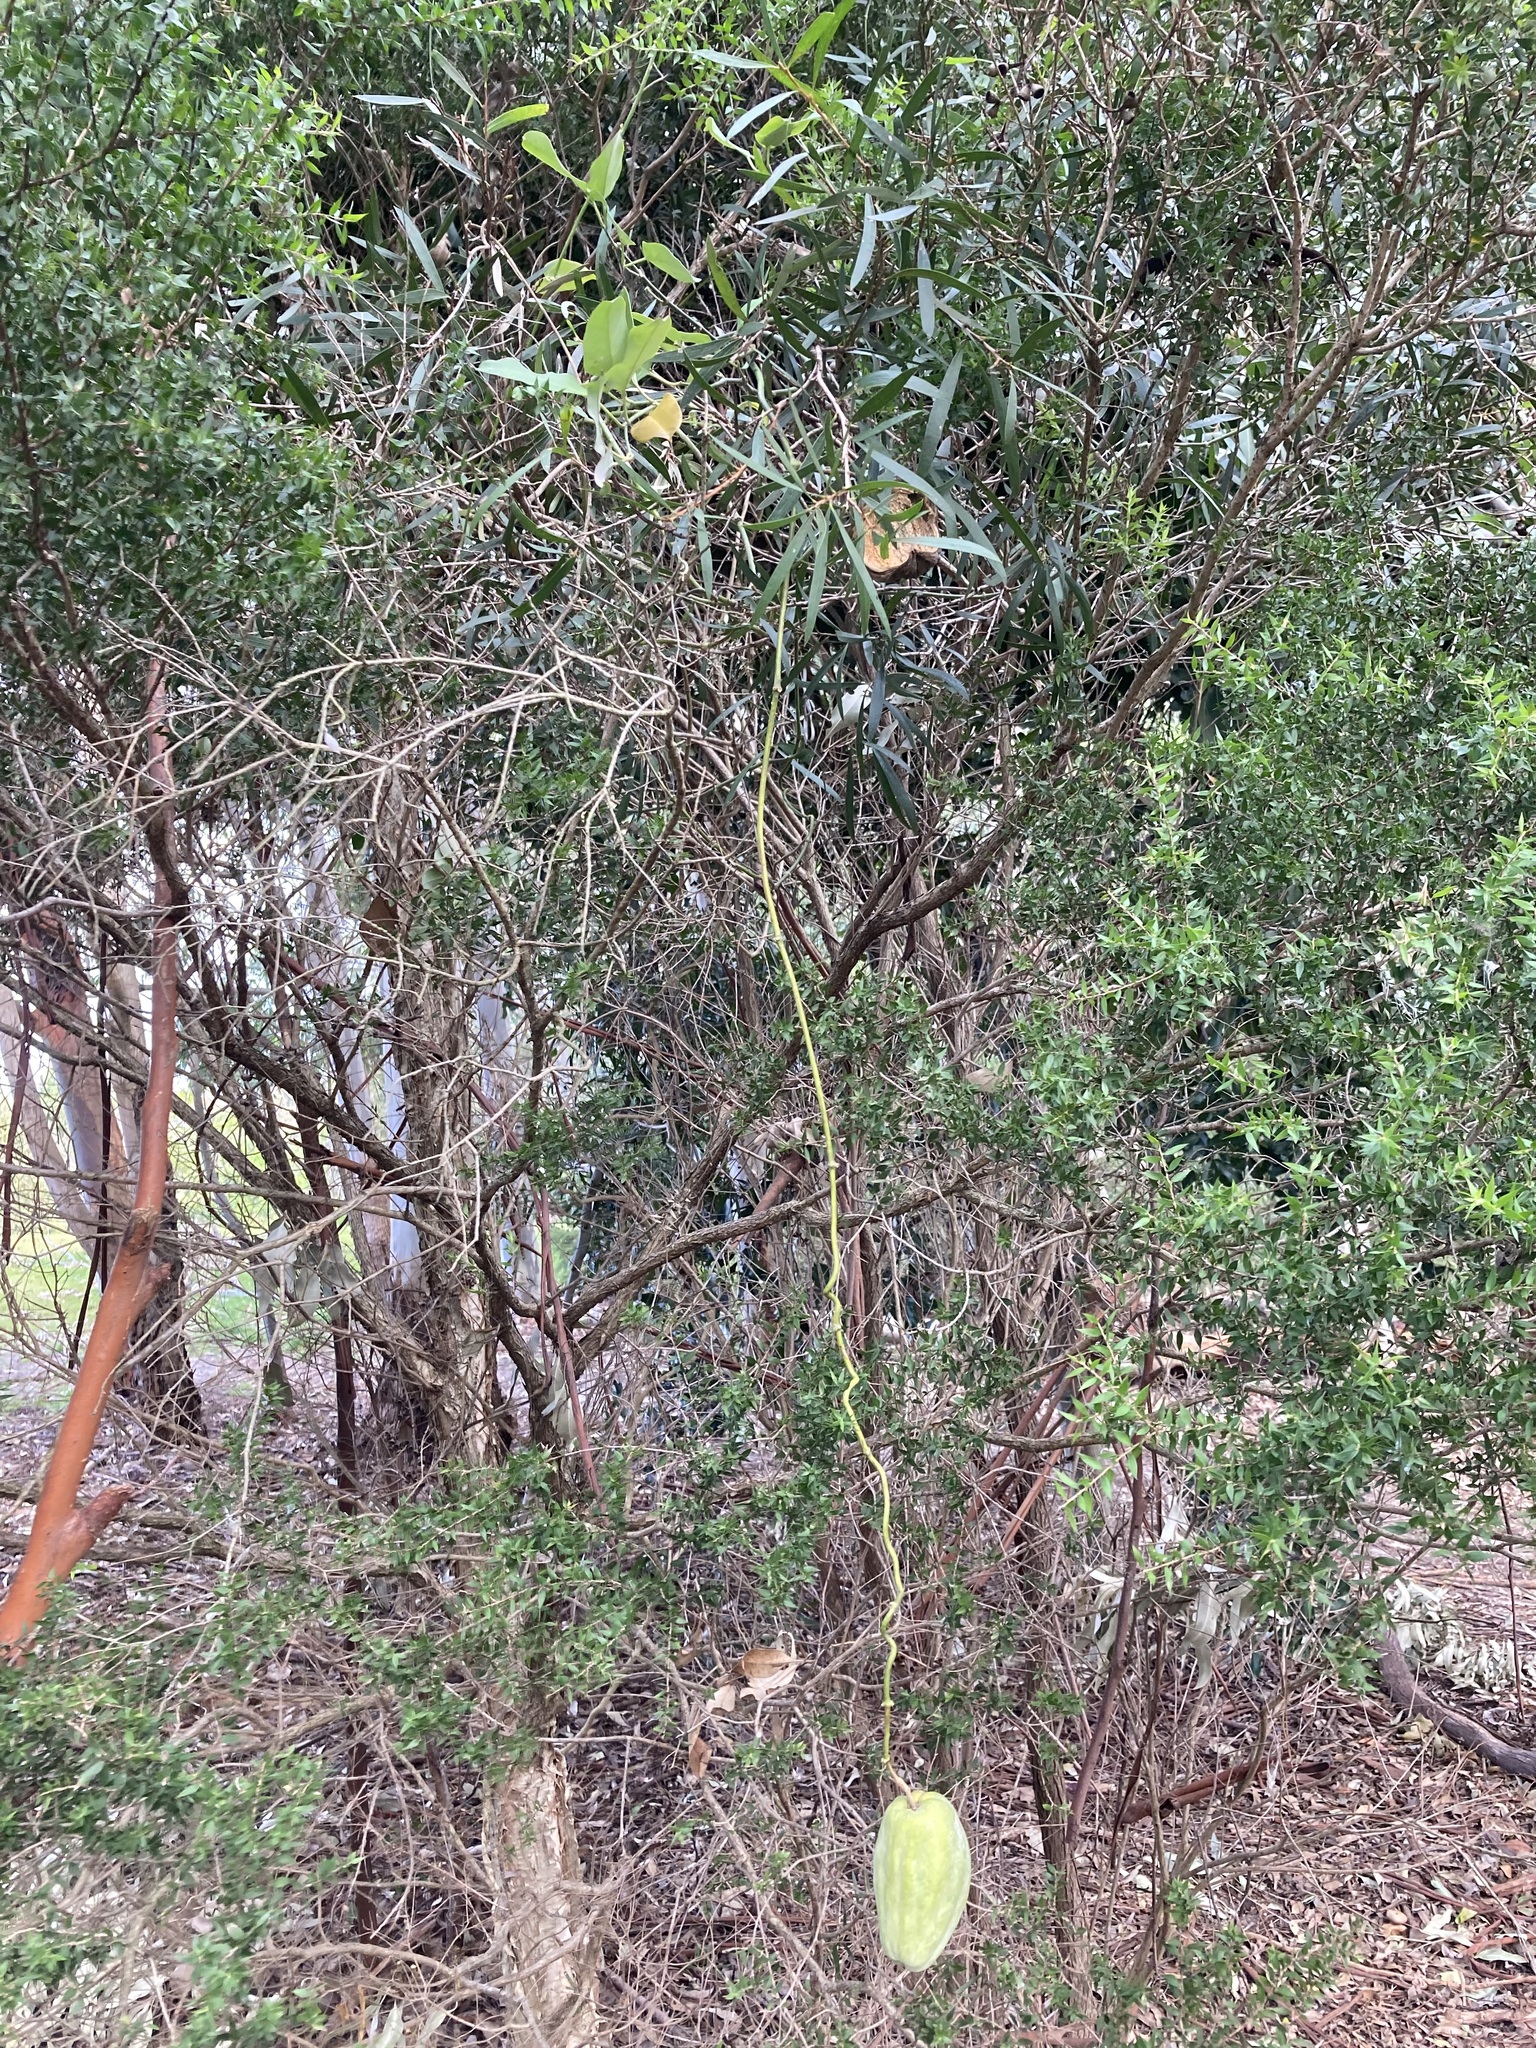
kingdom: Plantae
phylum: Tracheophyta
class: Magnoliopsida
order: Gentianales
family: Apocynaceae
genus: Araujia
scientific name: Araujia sericifera
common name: White bladderflower
